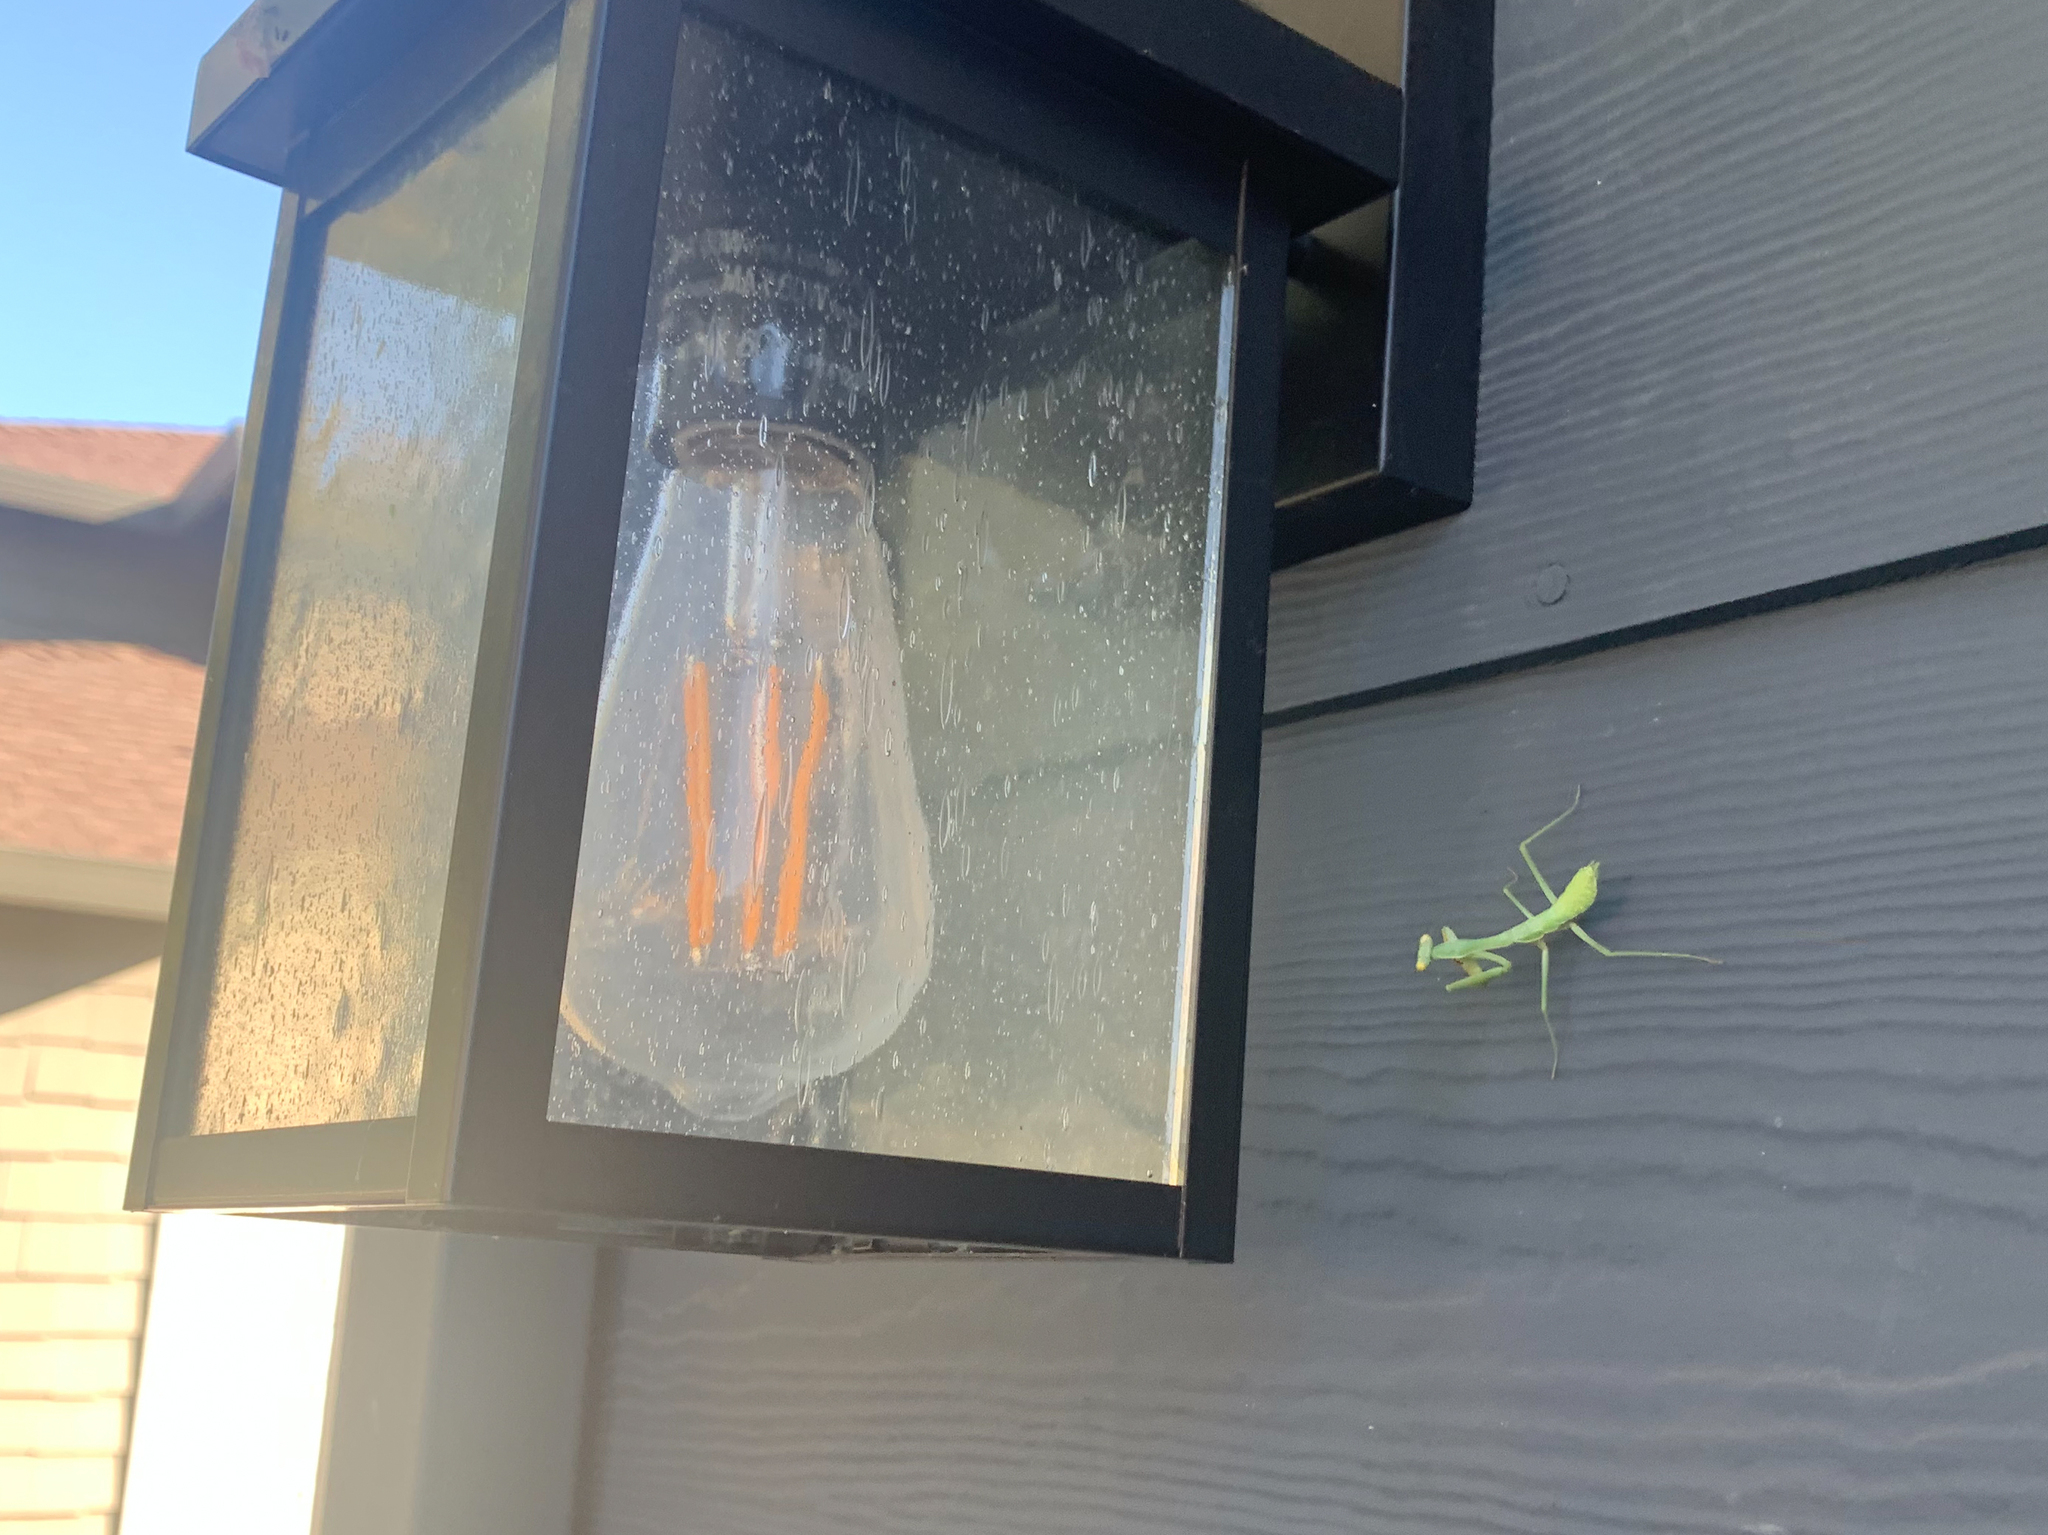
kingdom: Animalia
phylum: Arthropoda
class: Insecta
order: Mantodea
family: Mantidae
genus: Stagmomantis
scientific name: Stagmomantis limbata
